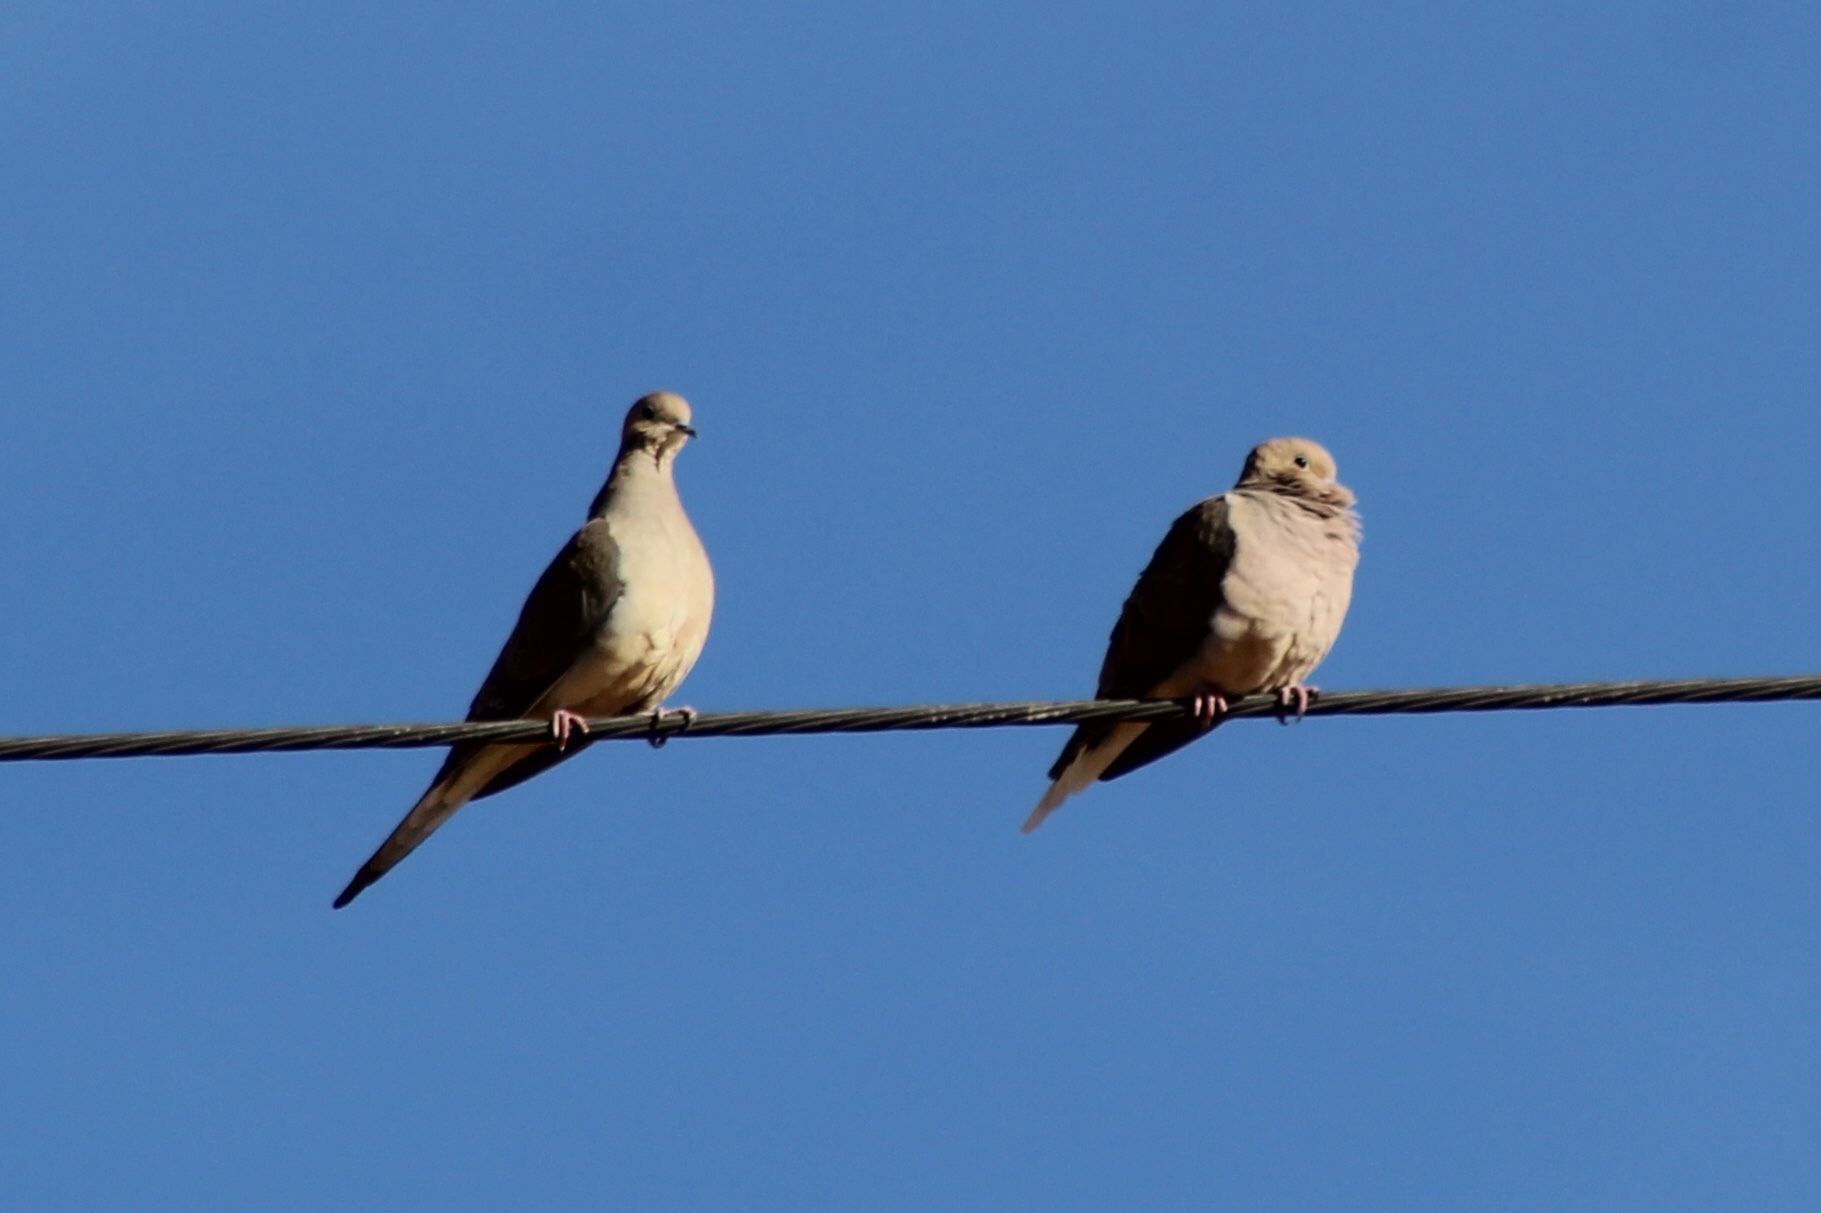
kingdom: Animalia
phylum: Chordata
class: Aves
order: Columbiformes
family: Columbidae
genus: Zenaida
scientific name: Zenaida macroura
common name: Mourning dove
